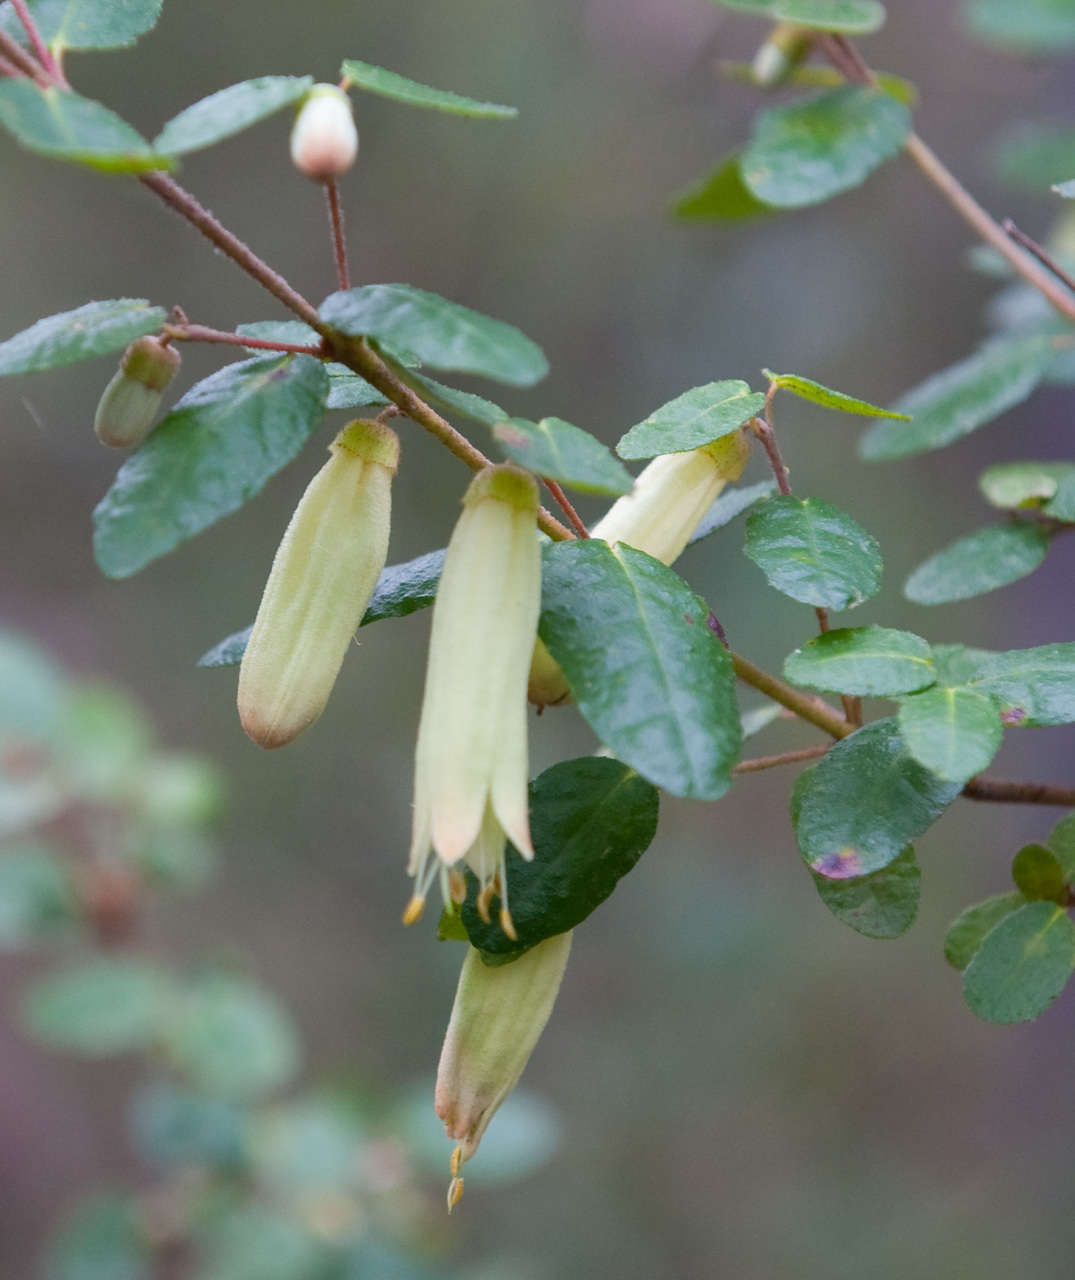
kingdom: Plantae
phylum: Tracheophyta
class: Magnoliopsida
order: Sapindales
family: Rutaceae
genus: Correa
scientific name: Correa reflexa
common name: Common correa
